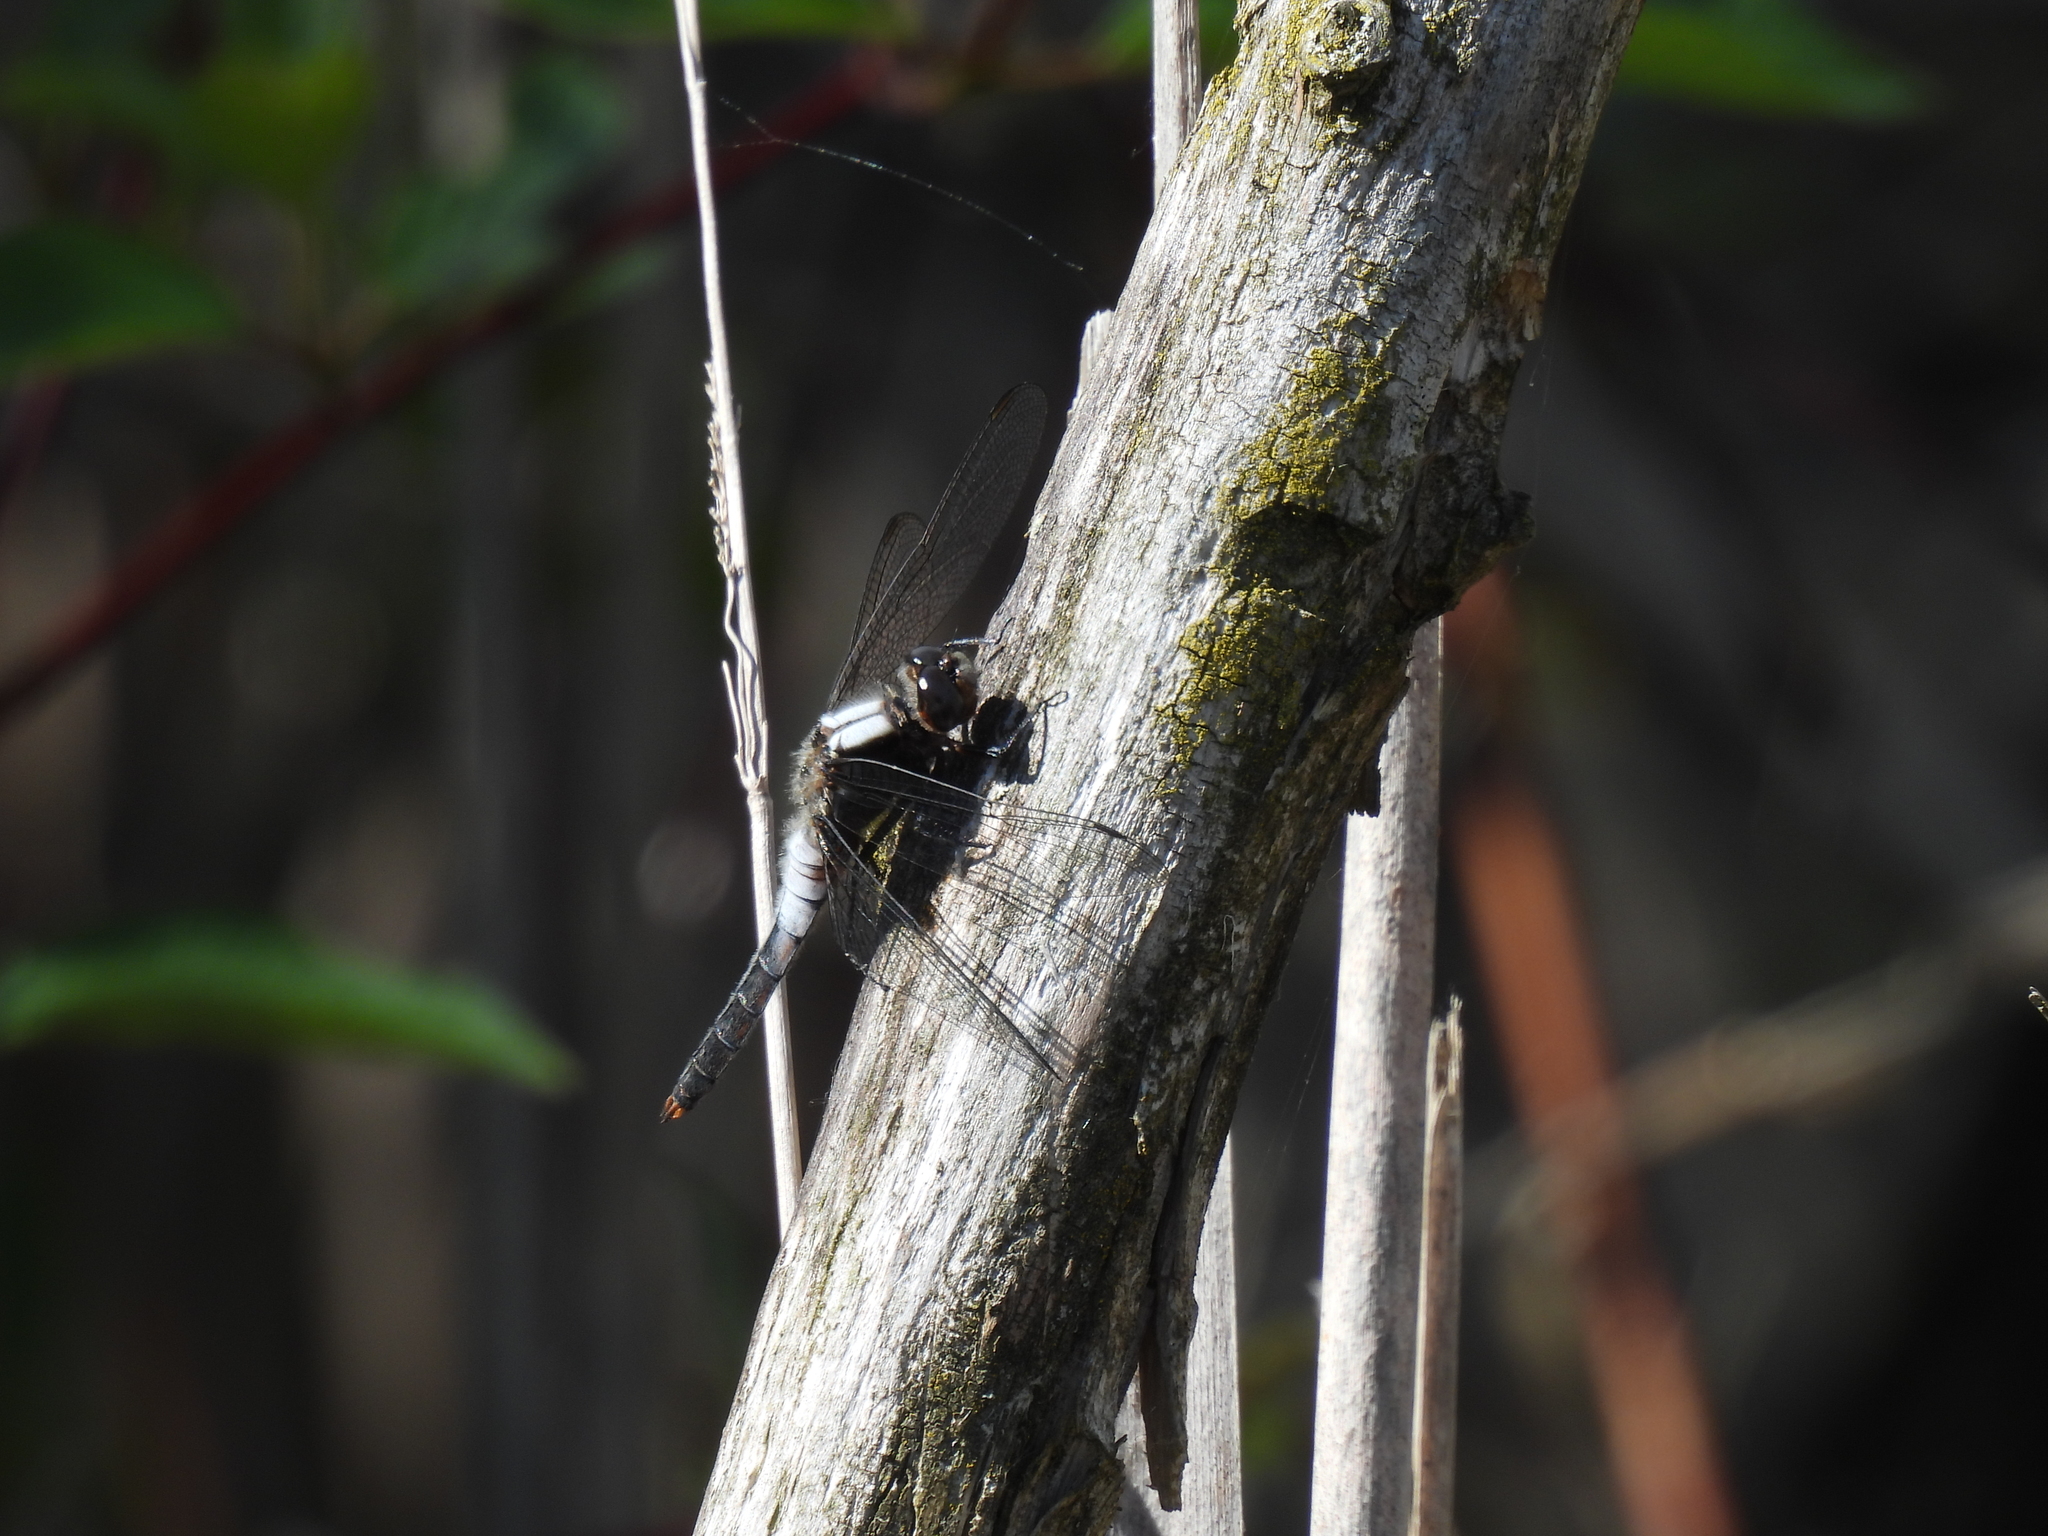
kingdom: Animalia
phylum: Arthropoda
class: Insecta
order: Odonata
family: Libellulidae
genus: Ladona
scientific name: Ladona julia
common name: Chalk-fronted corporal
